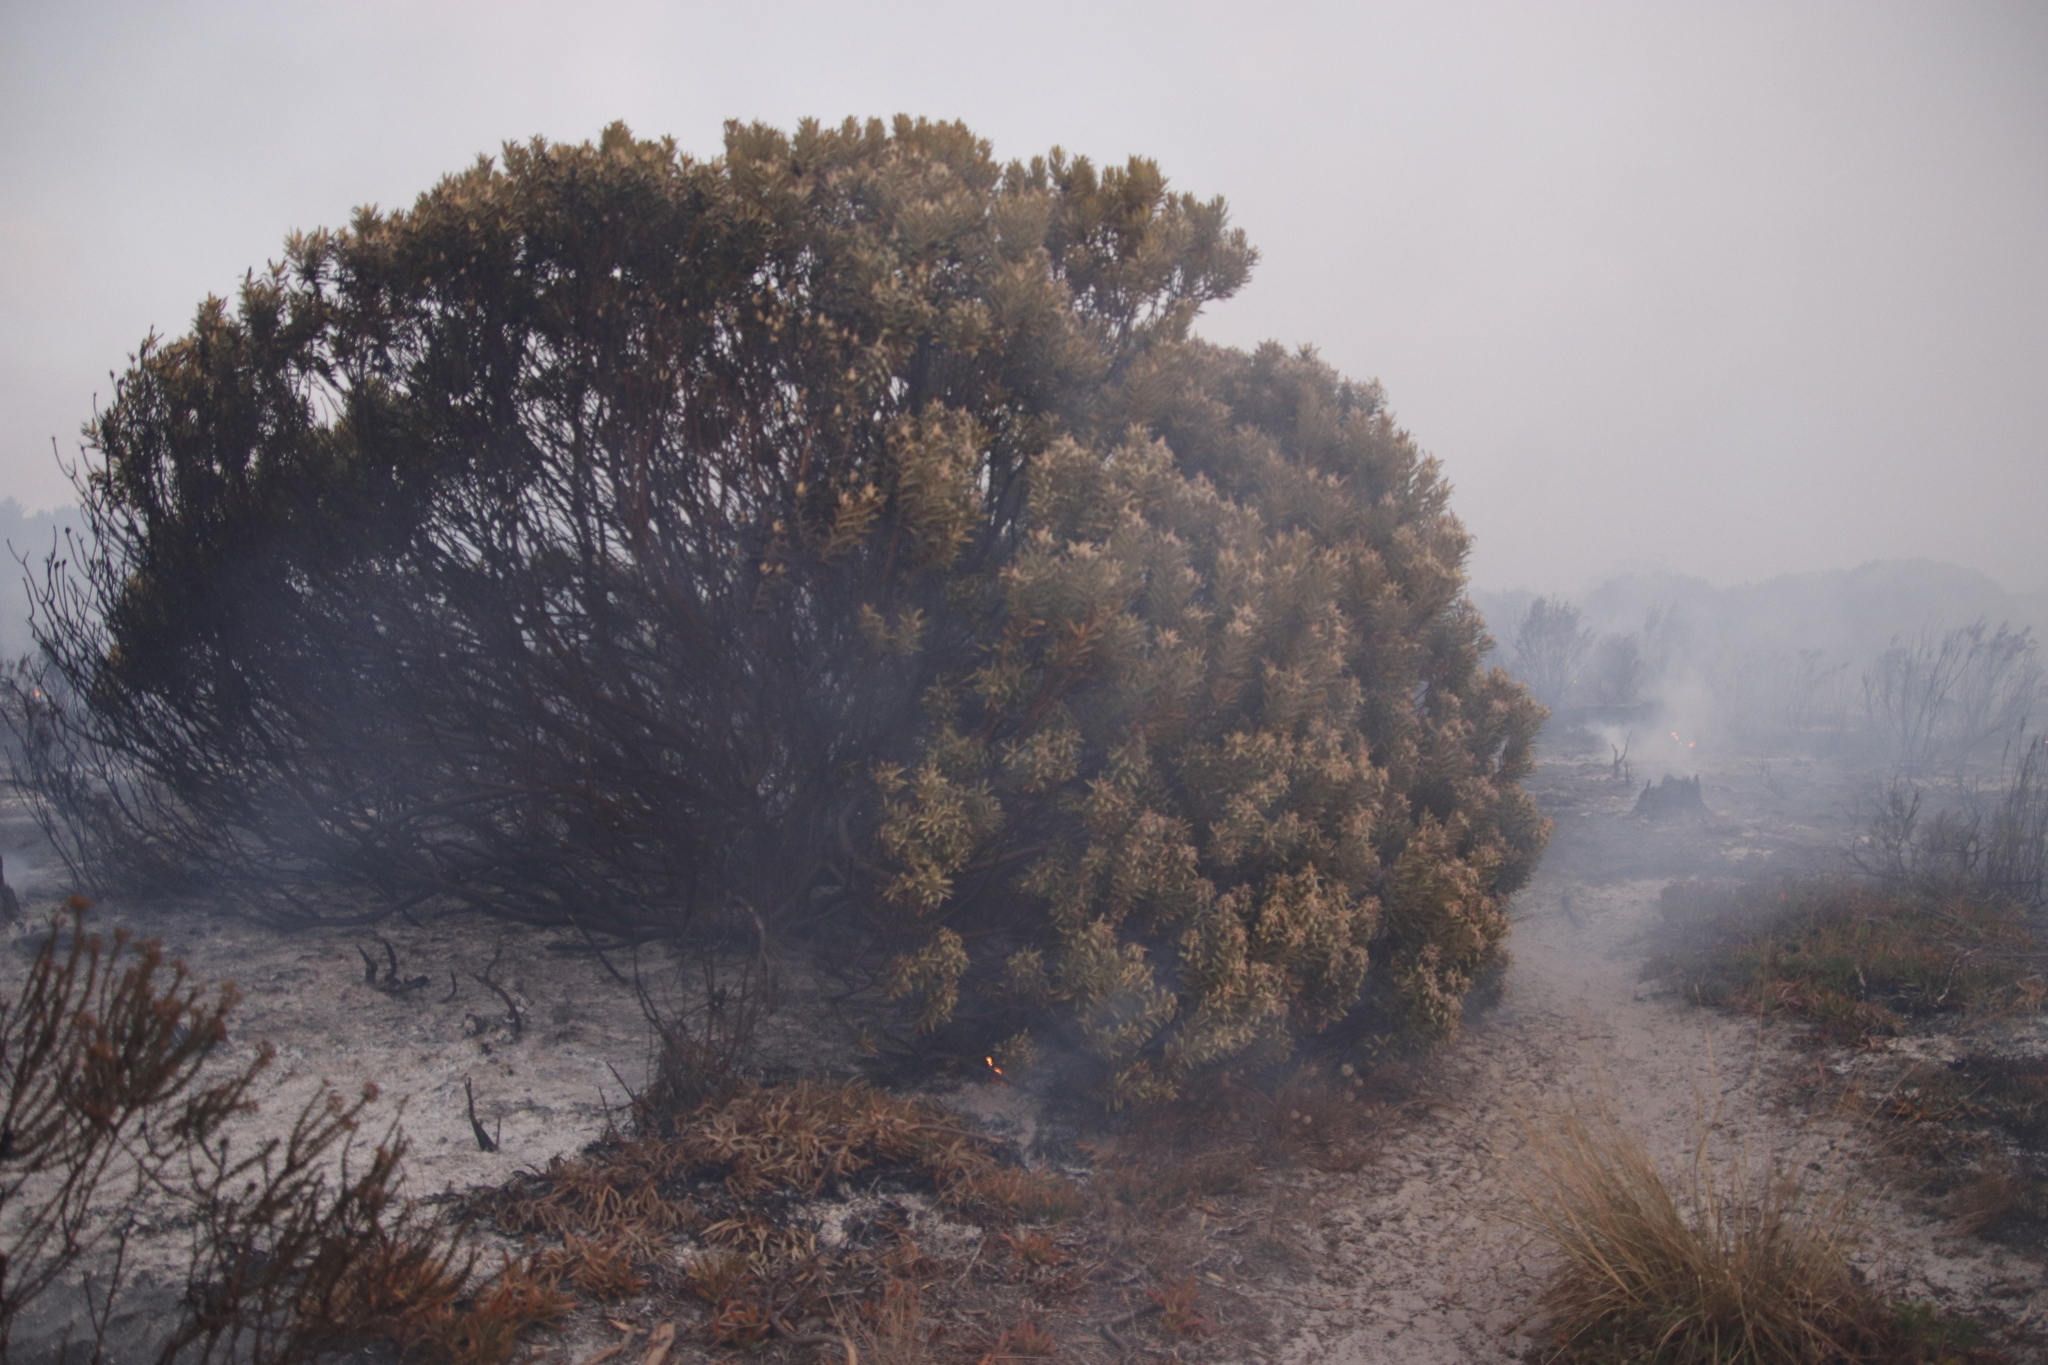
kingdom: Plantae
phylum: Tracheophyta
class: Magnoliopsida
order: Proteales
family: Proteaceae
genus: Leucadendron
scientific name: Leucadendron laureolum
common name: Golden sunshinebush
